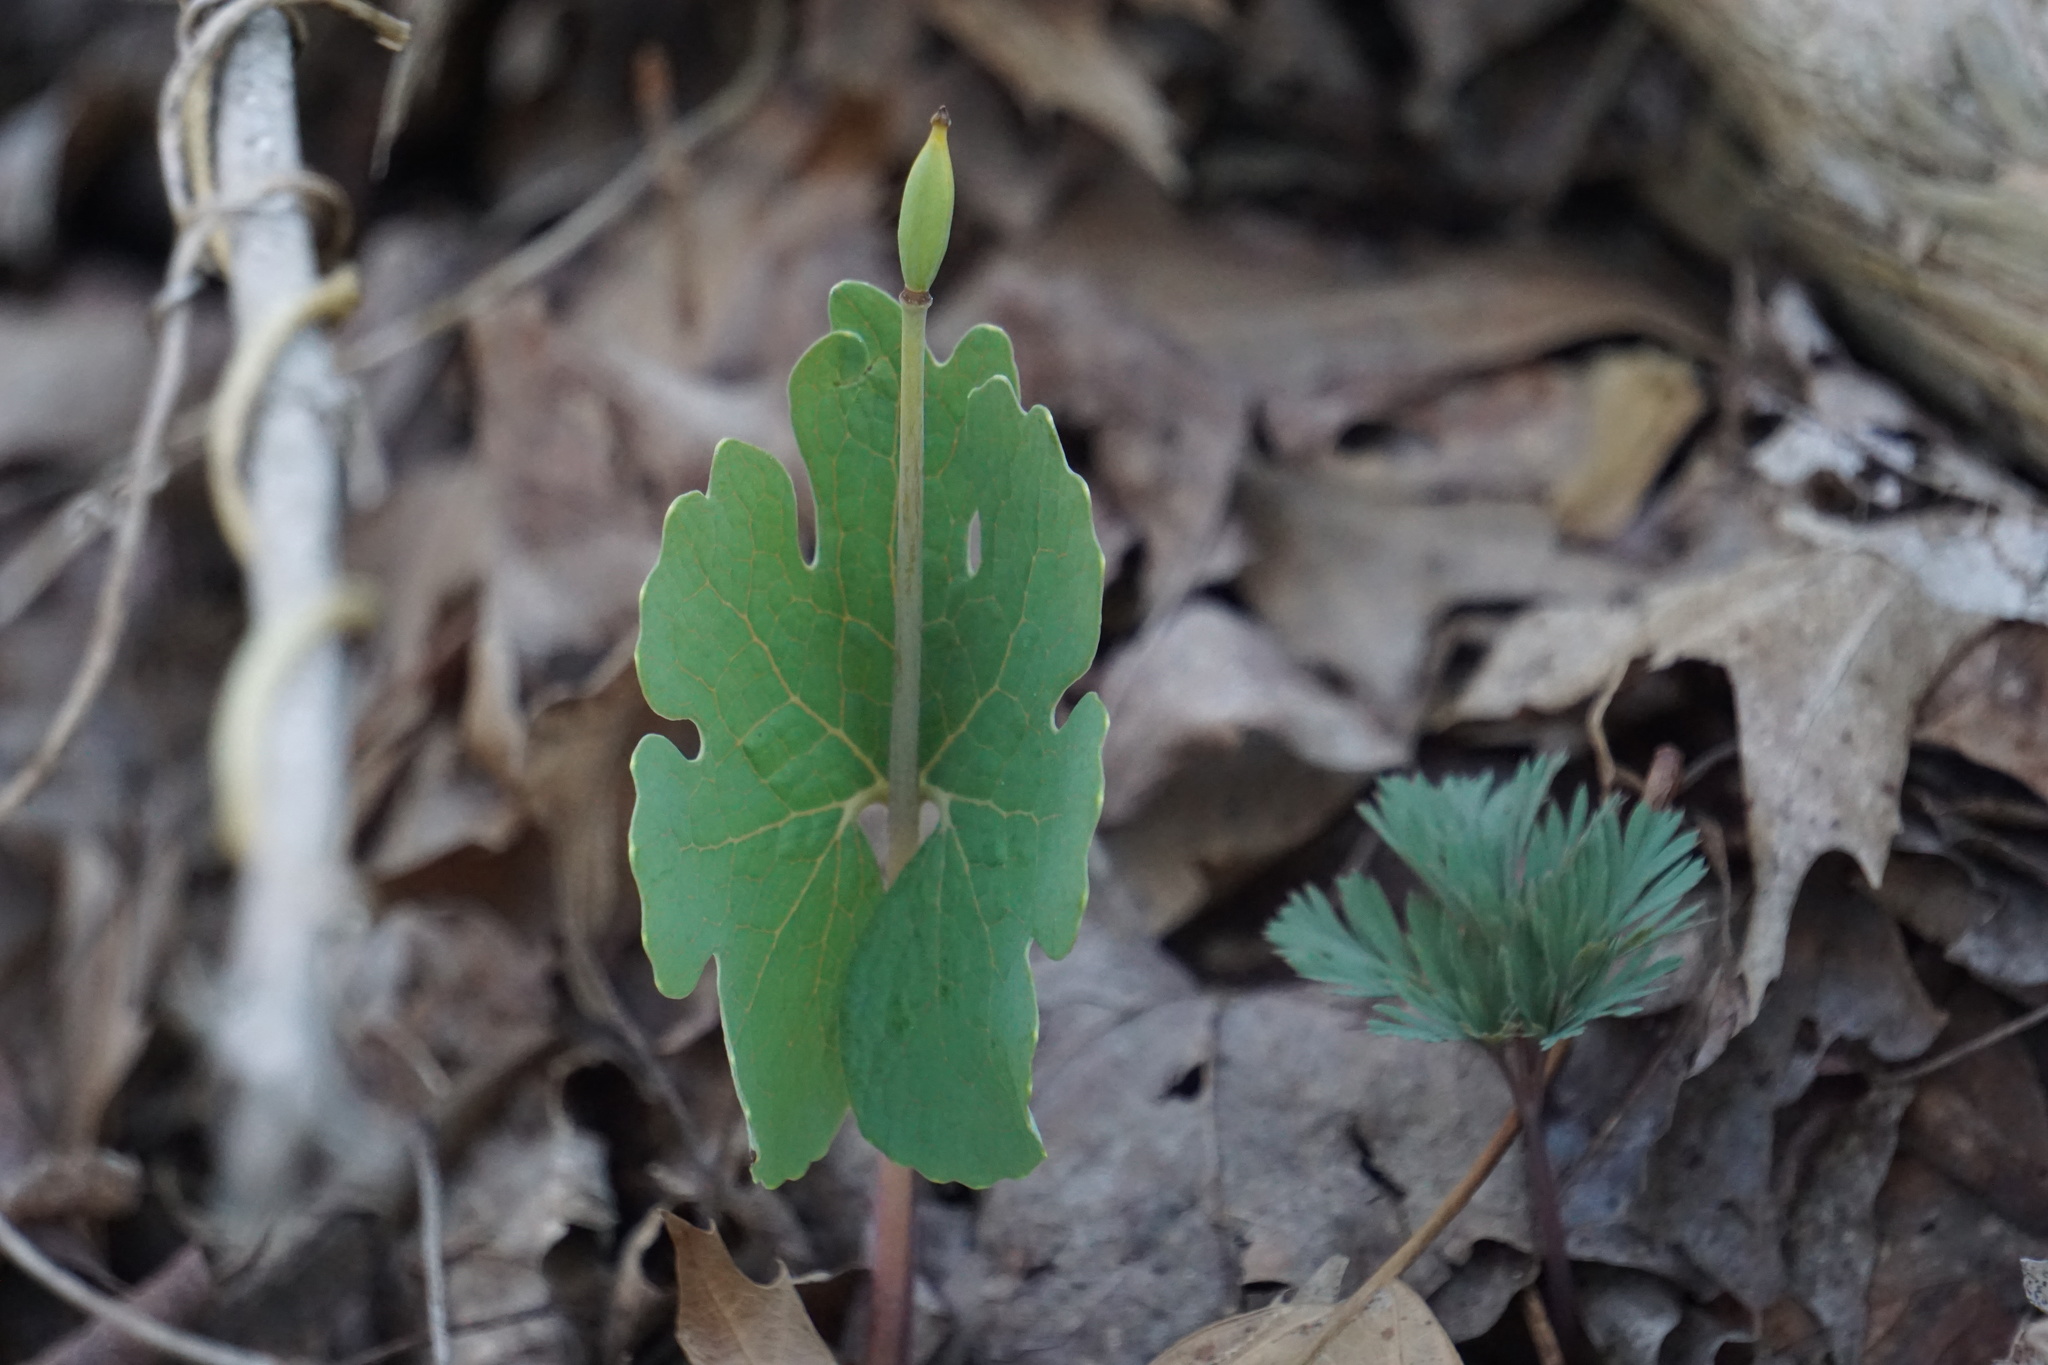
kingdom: Plantae
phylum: Tracheophyta
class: Magnoliopsida
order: Ranunculales
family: Papaveraceae
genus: Sanguinaria
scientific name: Sanguinaria canadensis
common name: Bloodroot
